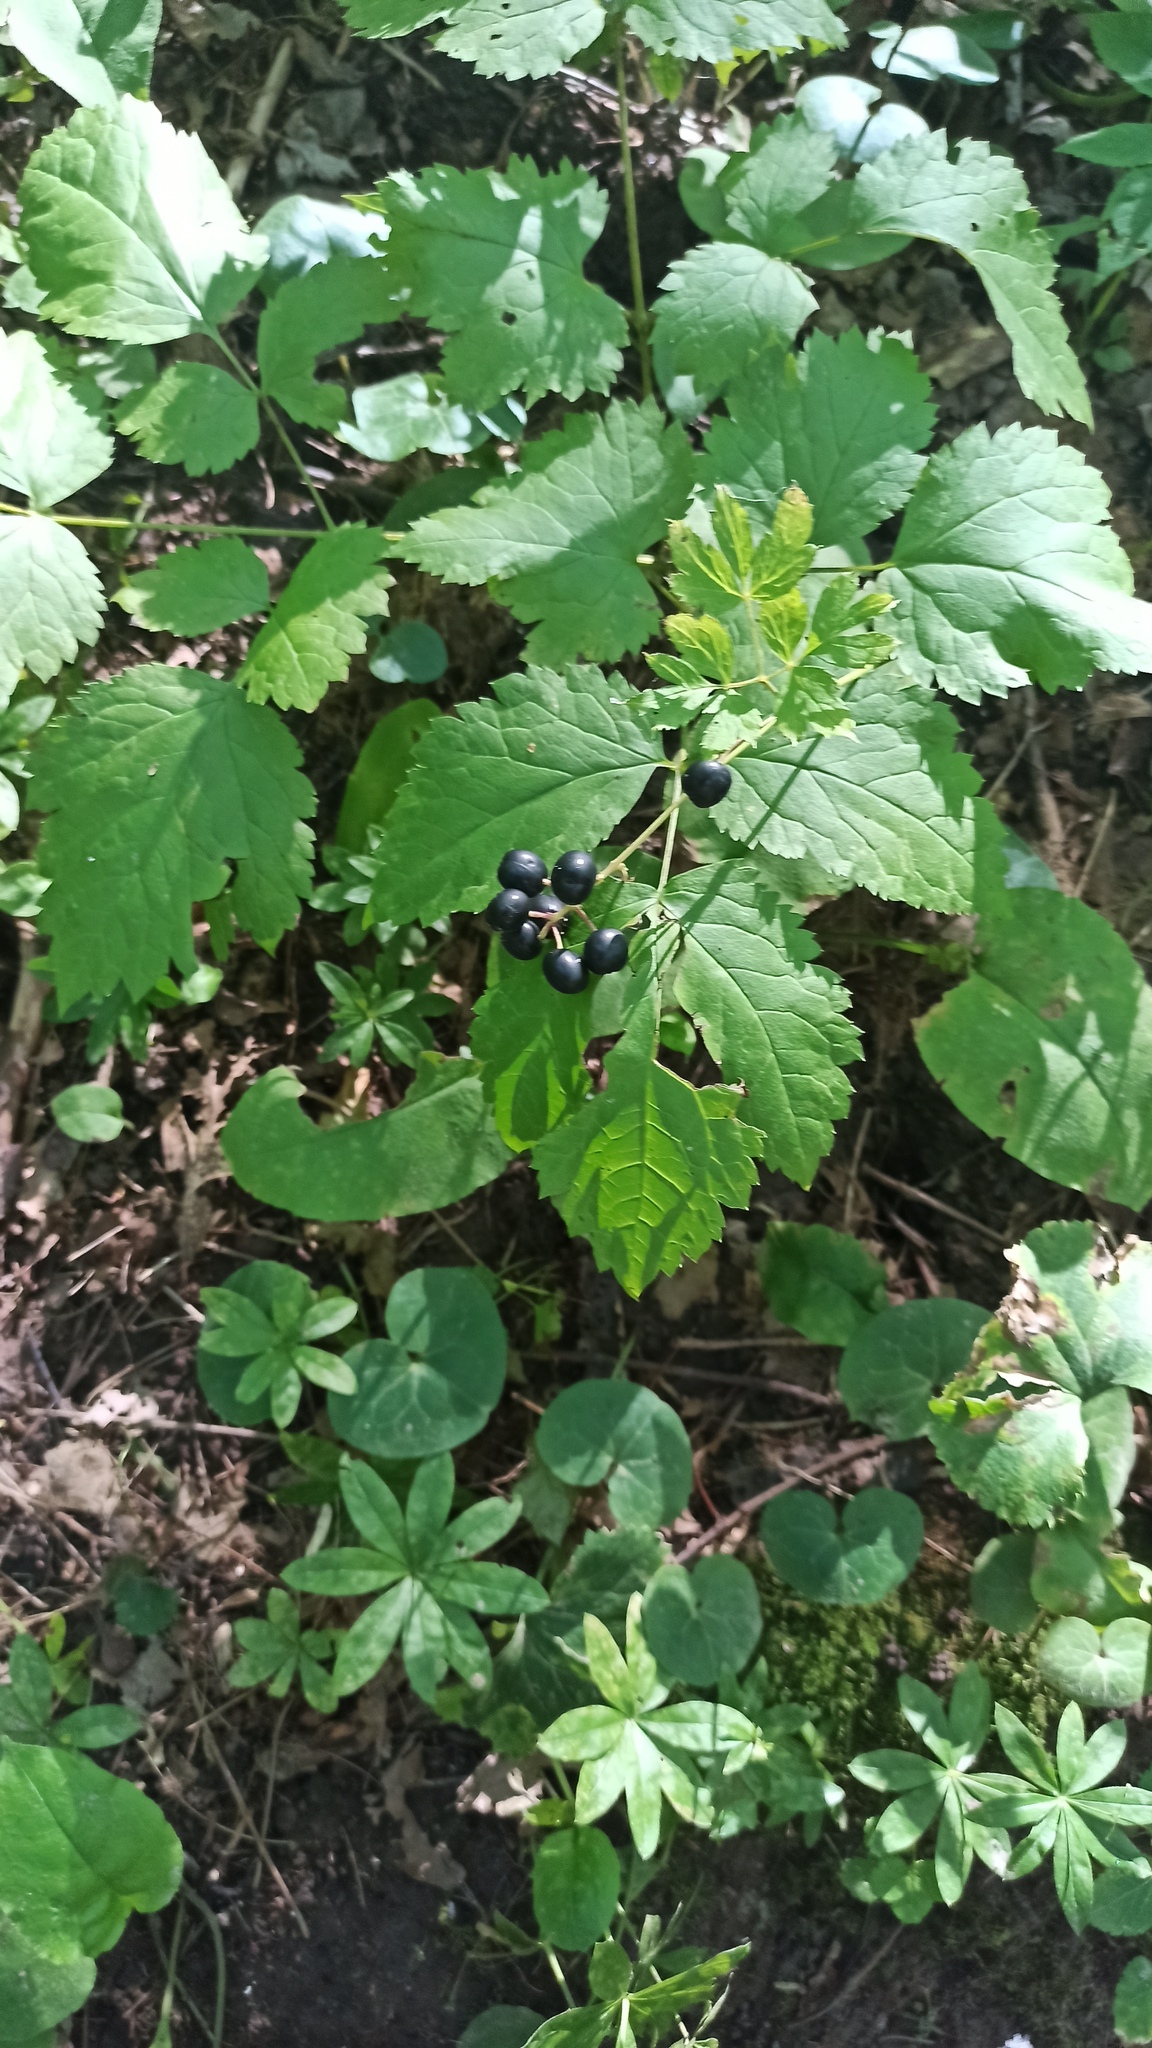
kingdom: Plantae
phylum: Tracheophyta
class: Magnoliopsida
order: Ranunculales
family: Ranunculaceae
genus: Actaea
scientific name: Actaea spicata
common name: Baneberry
